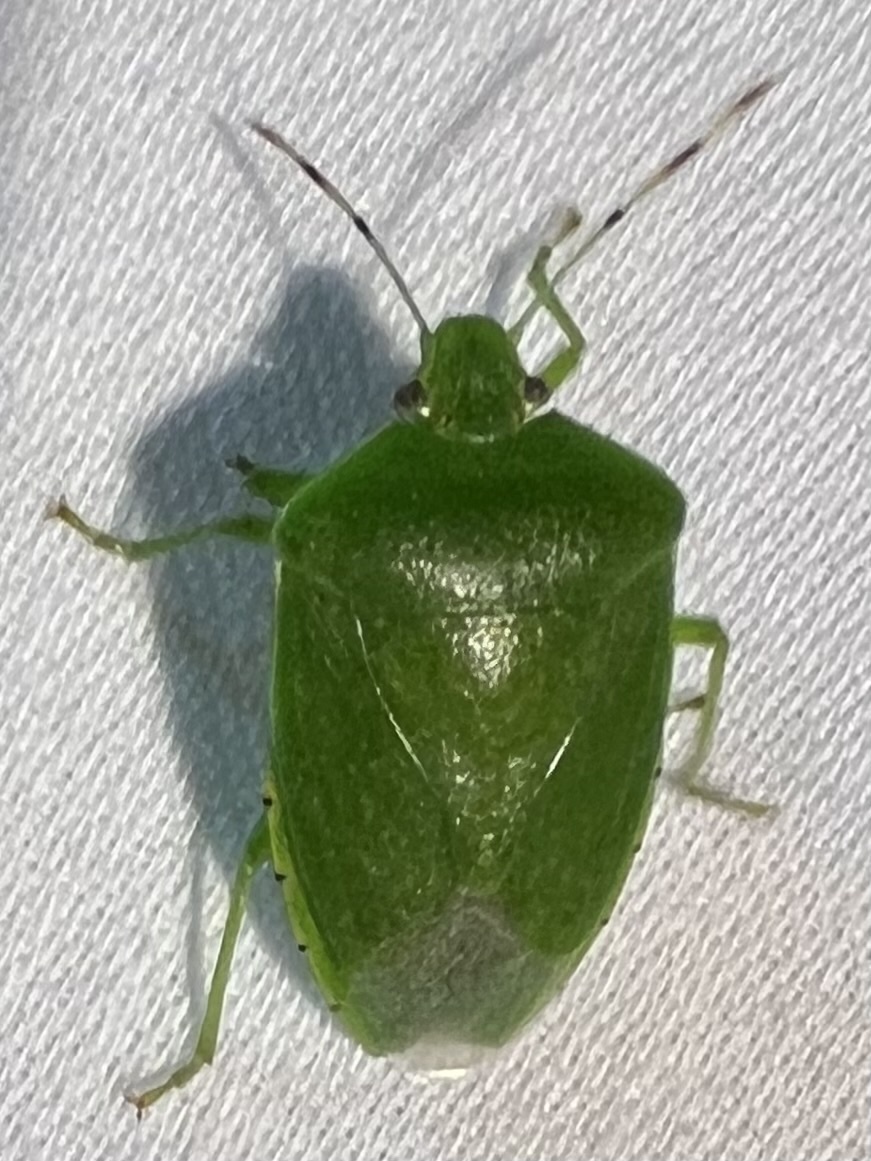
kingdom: Animalia
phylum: Arthropoda
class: Insecta
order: Hemiptera
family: Pentatomidae
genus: Chinavia
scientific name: Chinavia hilaris
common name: Green stink bug
